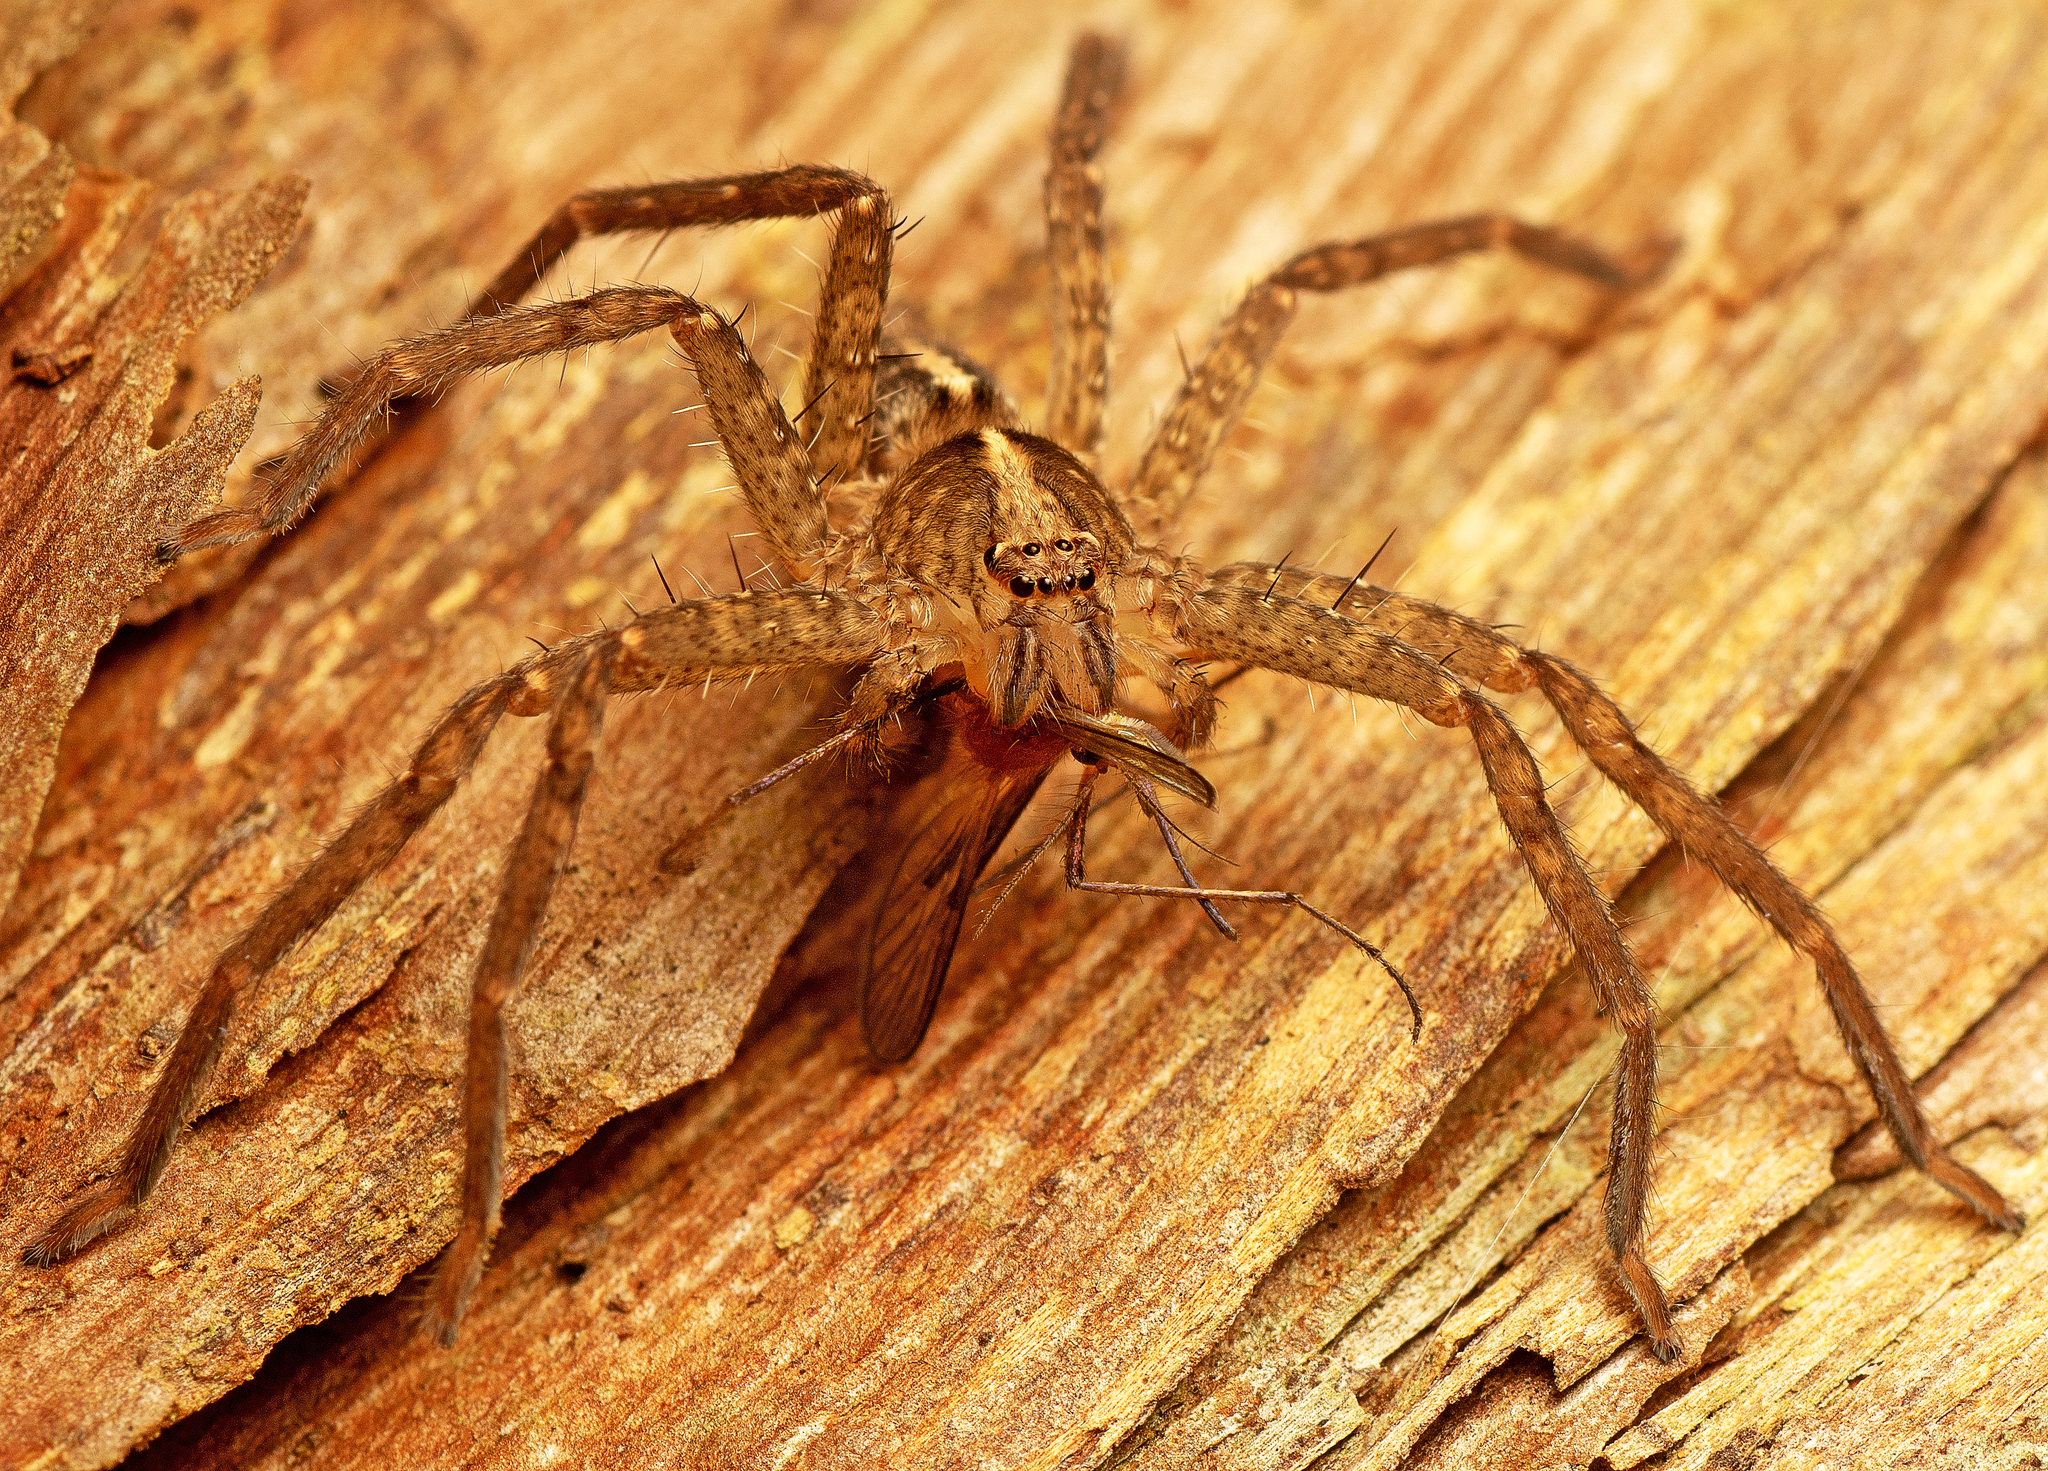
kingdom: Animalia
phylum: Arthropoda
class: Arachnida
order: Araneae
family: Sparassidae
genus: Yiinthi
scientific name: Yiinthi kakadu
